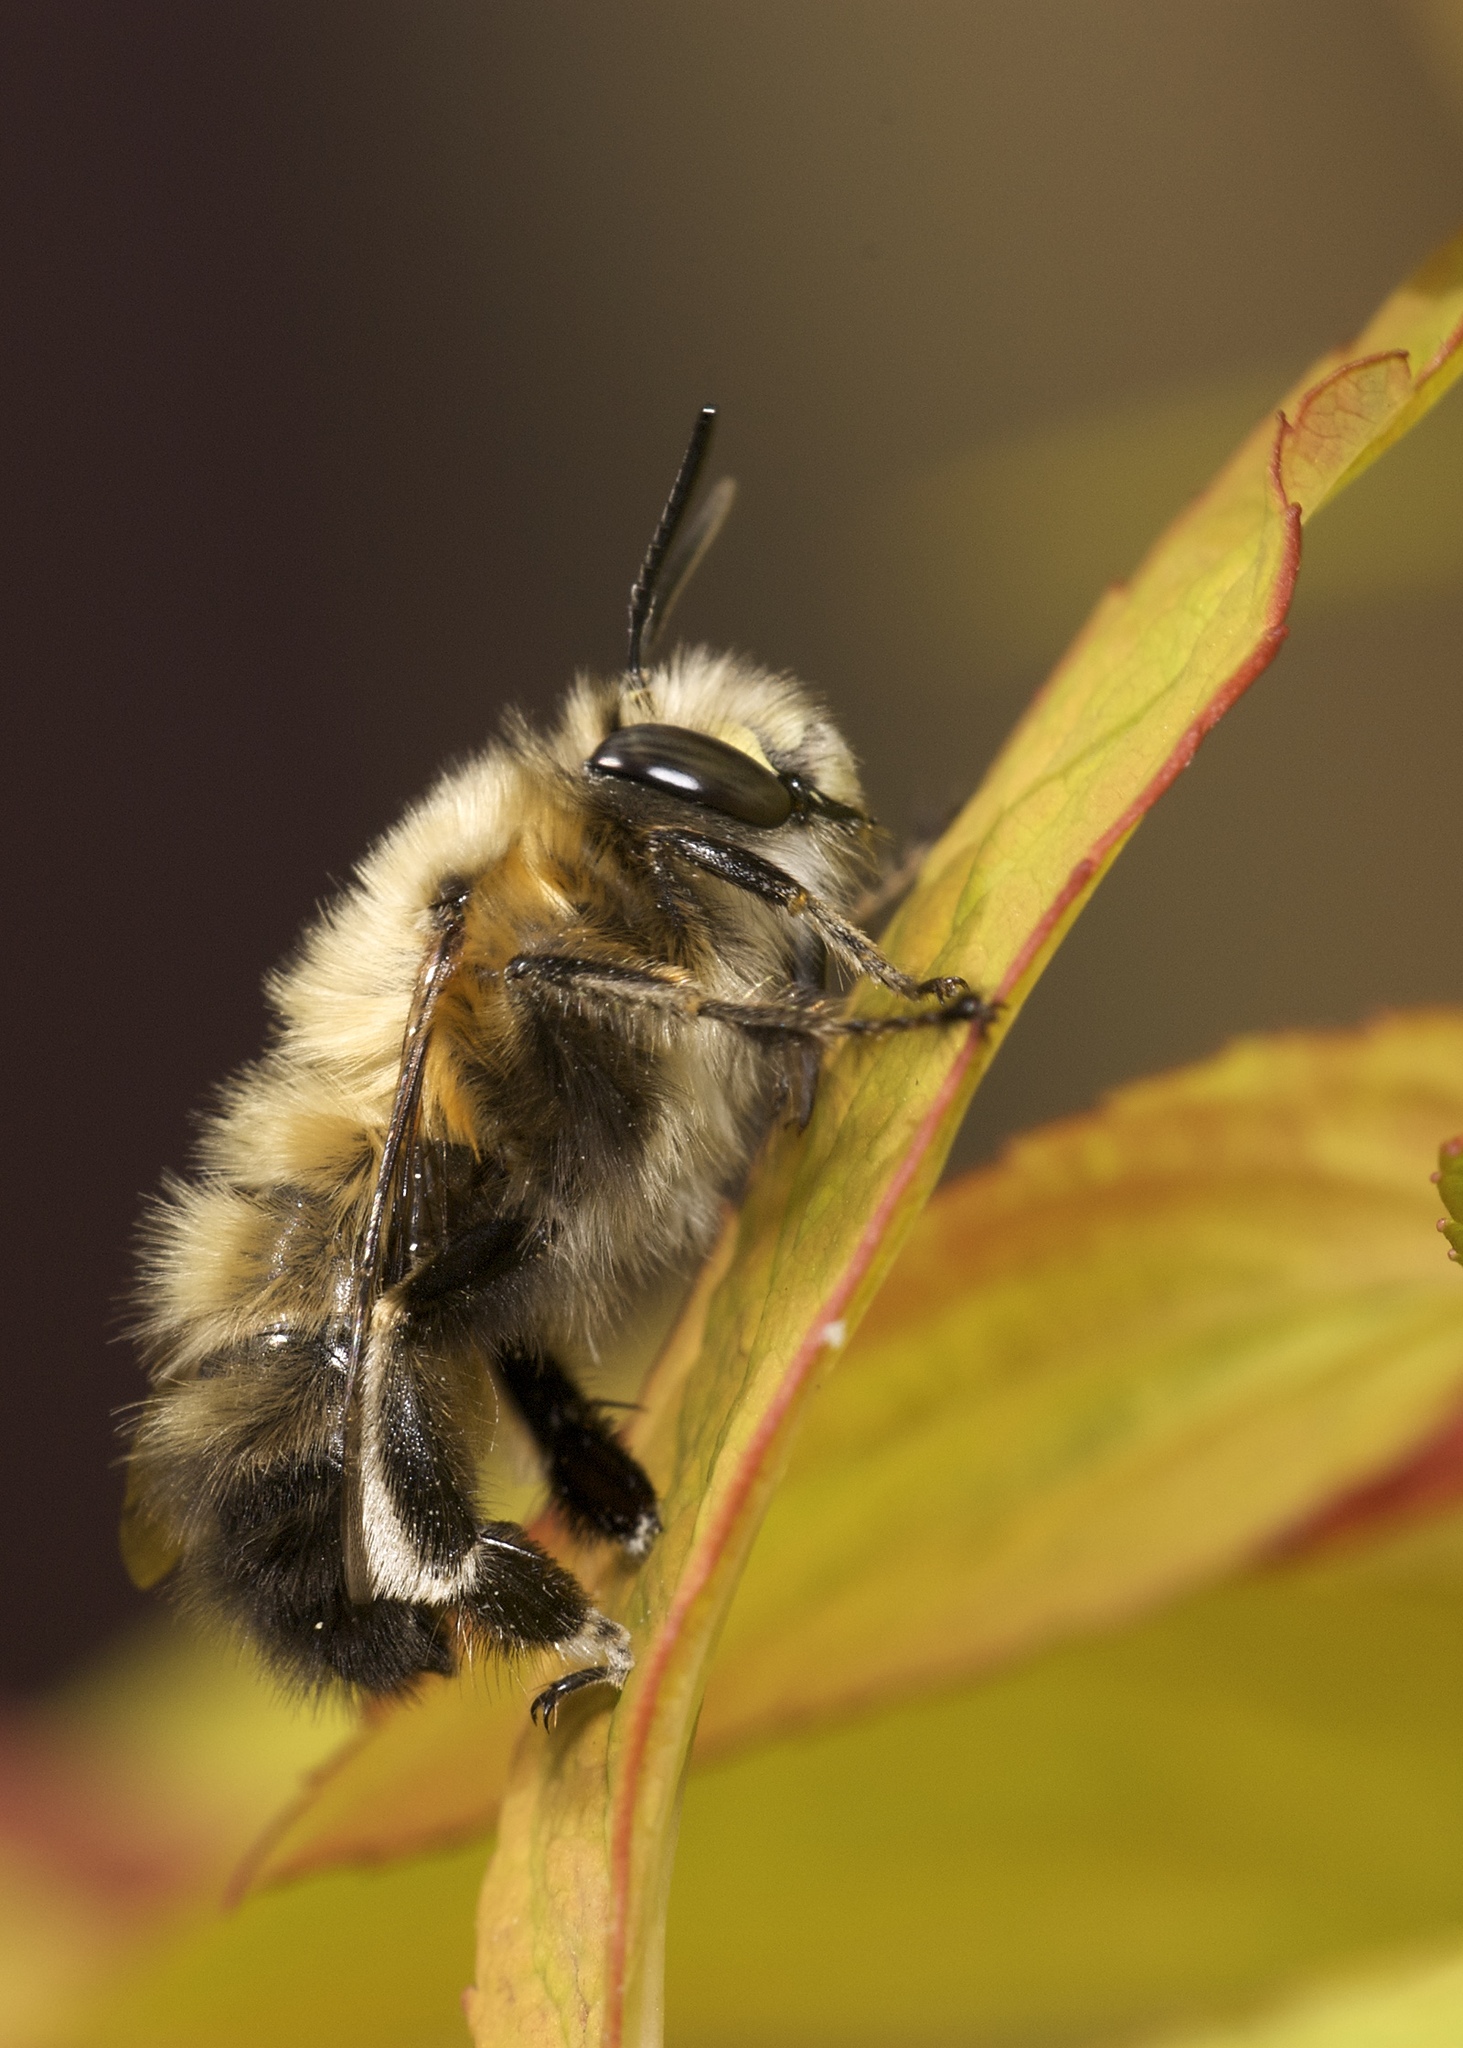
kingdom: Animalia
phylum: Arthropoda
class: Insecta
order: Hymenoptera
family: Apidae
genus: Anthophora
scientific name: Anthophora plumipes
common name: Hairy-footed flower bee
